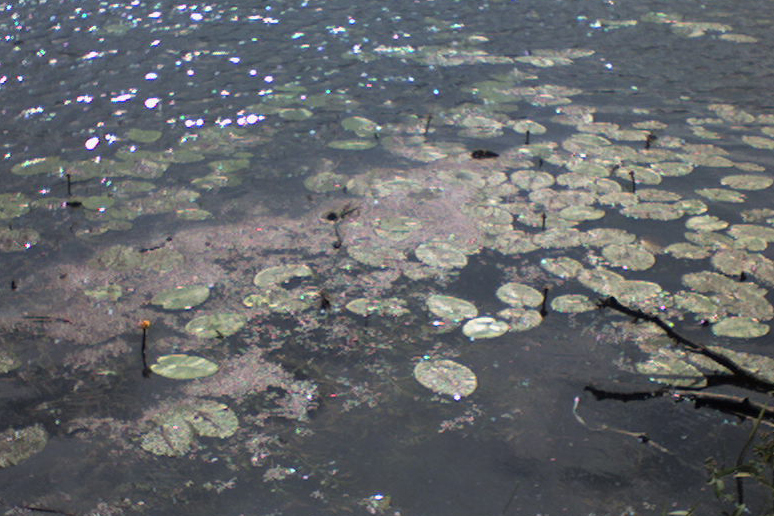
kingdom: Plantae
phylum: Tracheophyta
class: Magnoliopsida
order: Nymphaeales
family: Nymphaeaceae
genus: Nuphar
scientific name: Nuphar lutea
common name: Yellow water-lily
